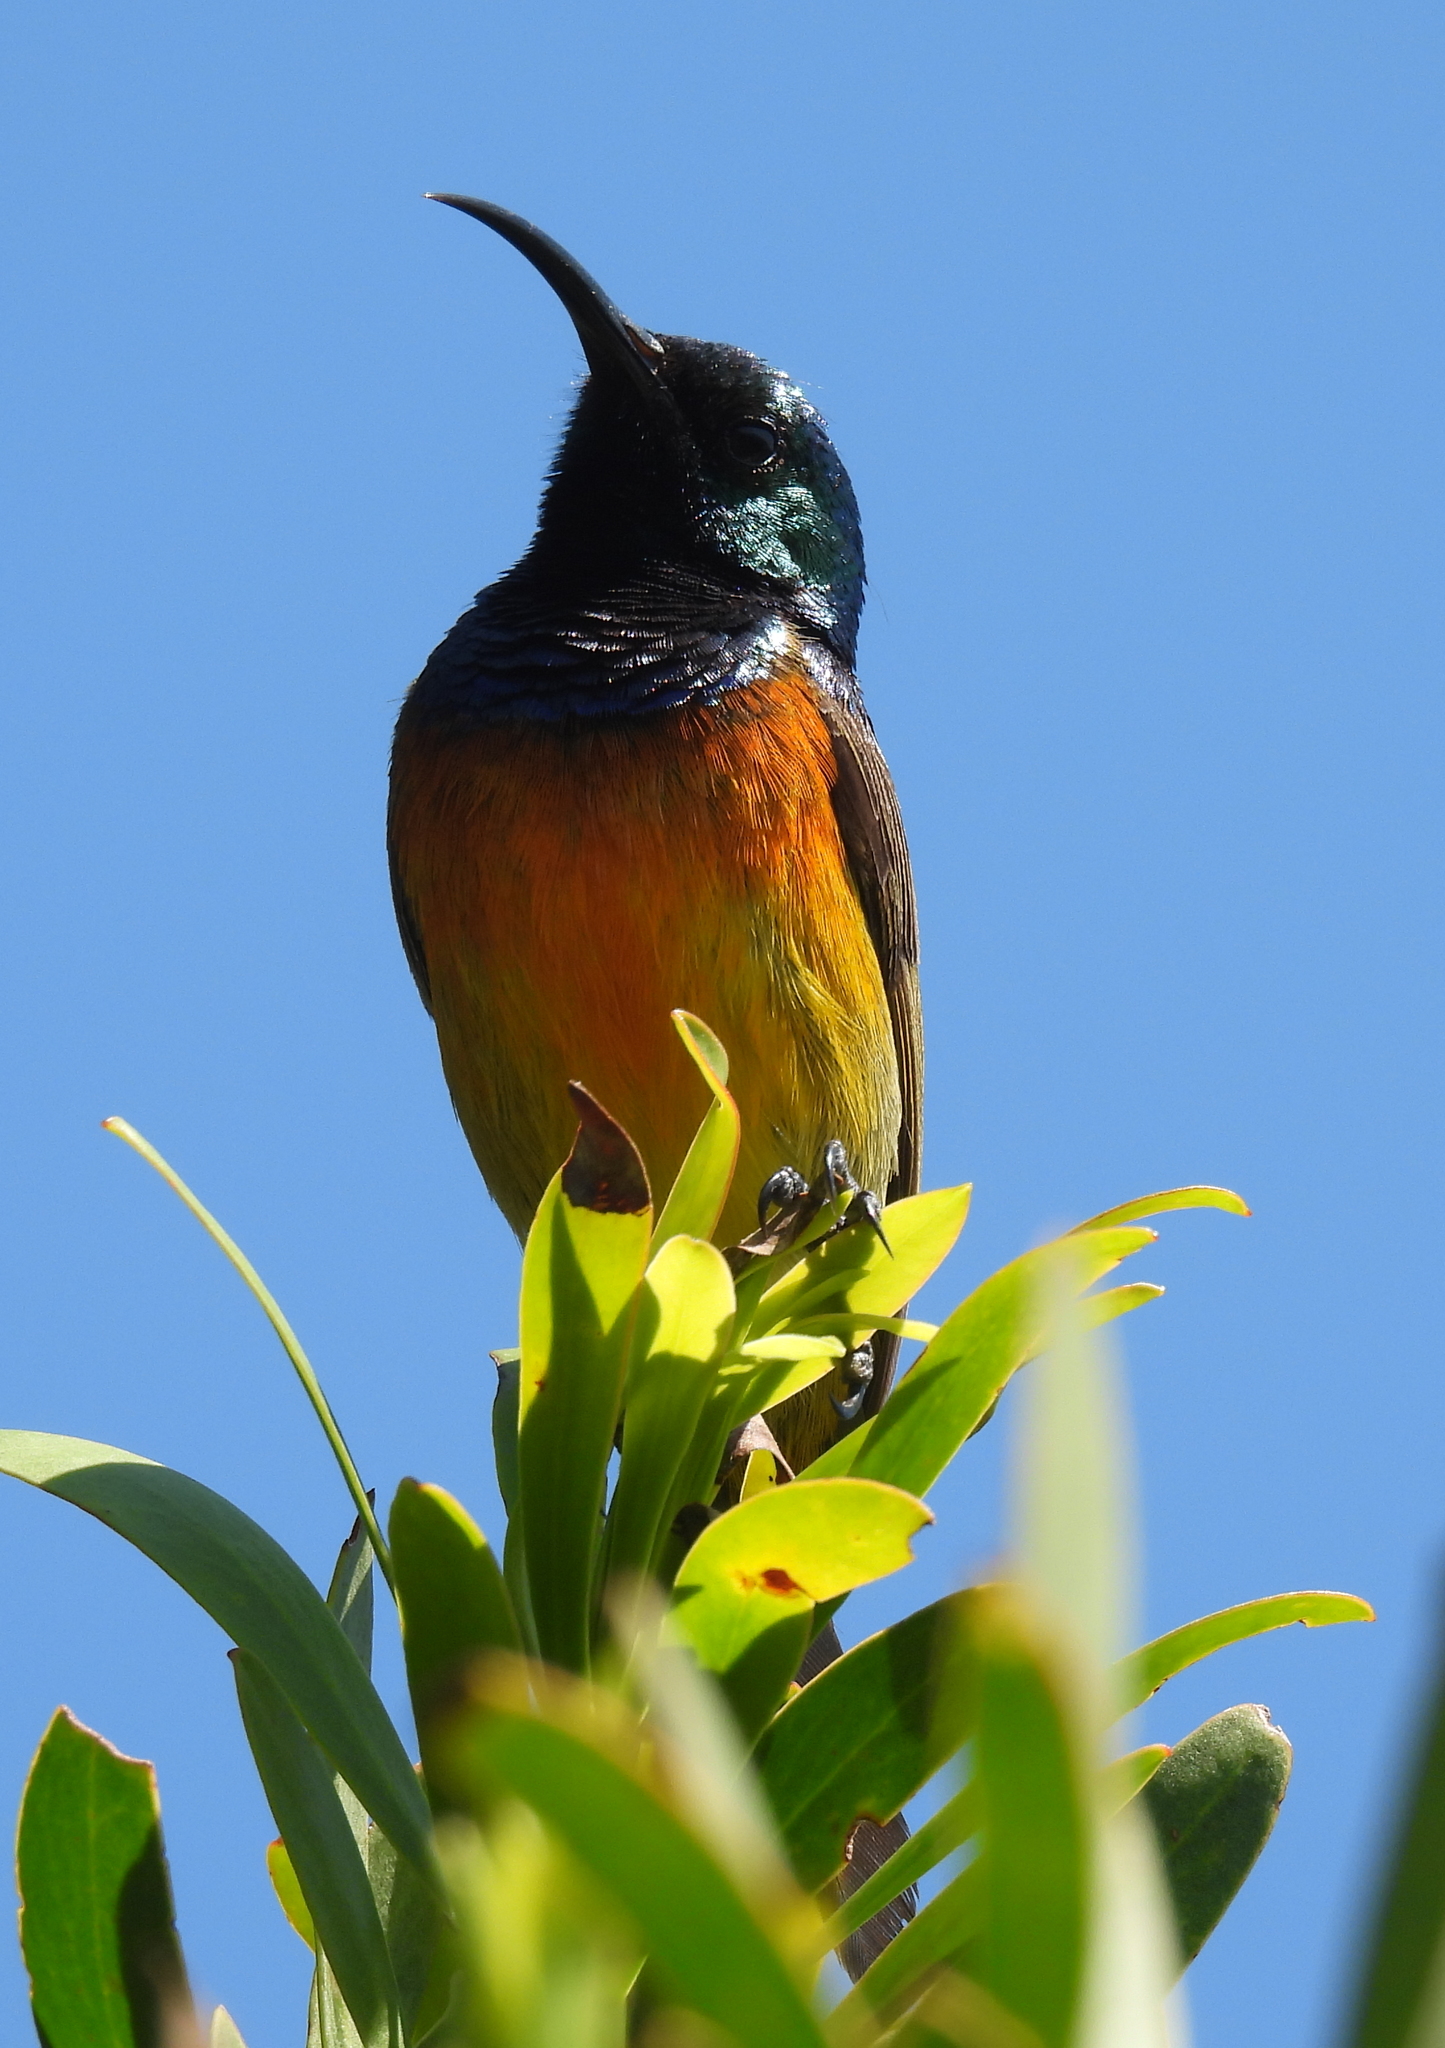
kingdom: Animalia
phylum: Chordata
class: Aves
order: Passeriformes
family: Nectariniidae
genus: Anthobaphes
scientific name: Anthobaphes violacea
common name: Orange-breasted sunbird
